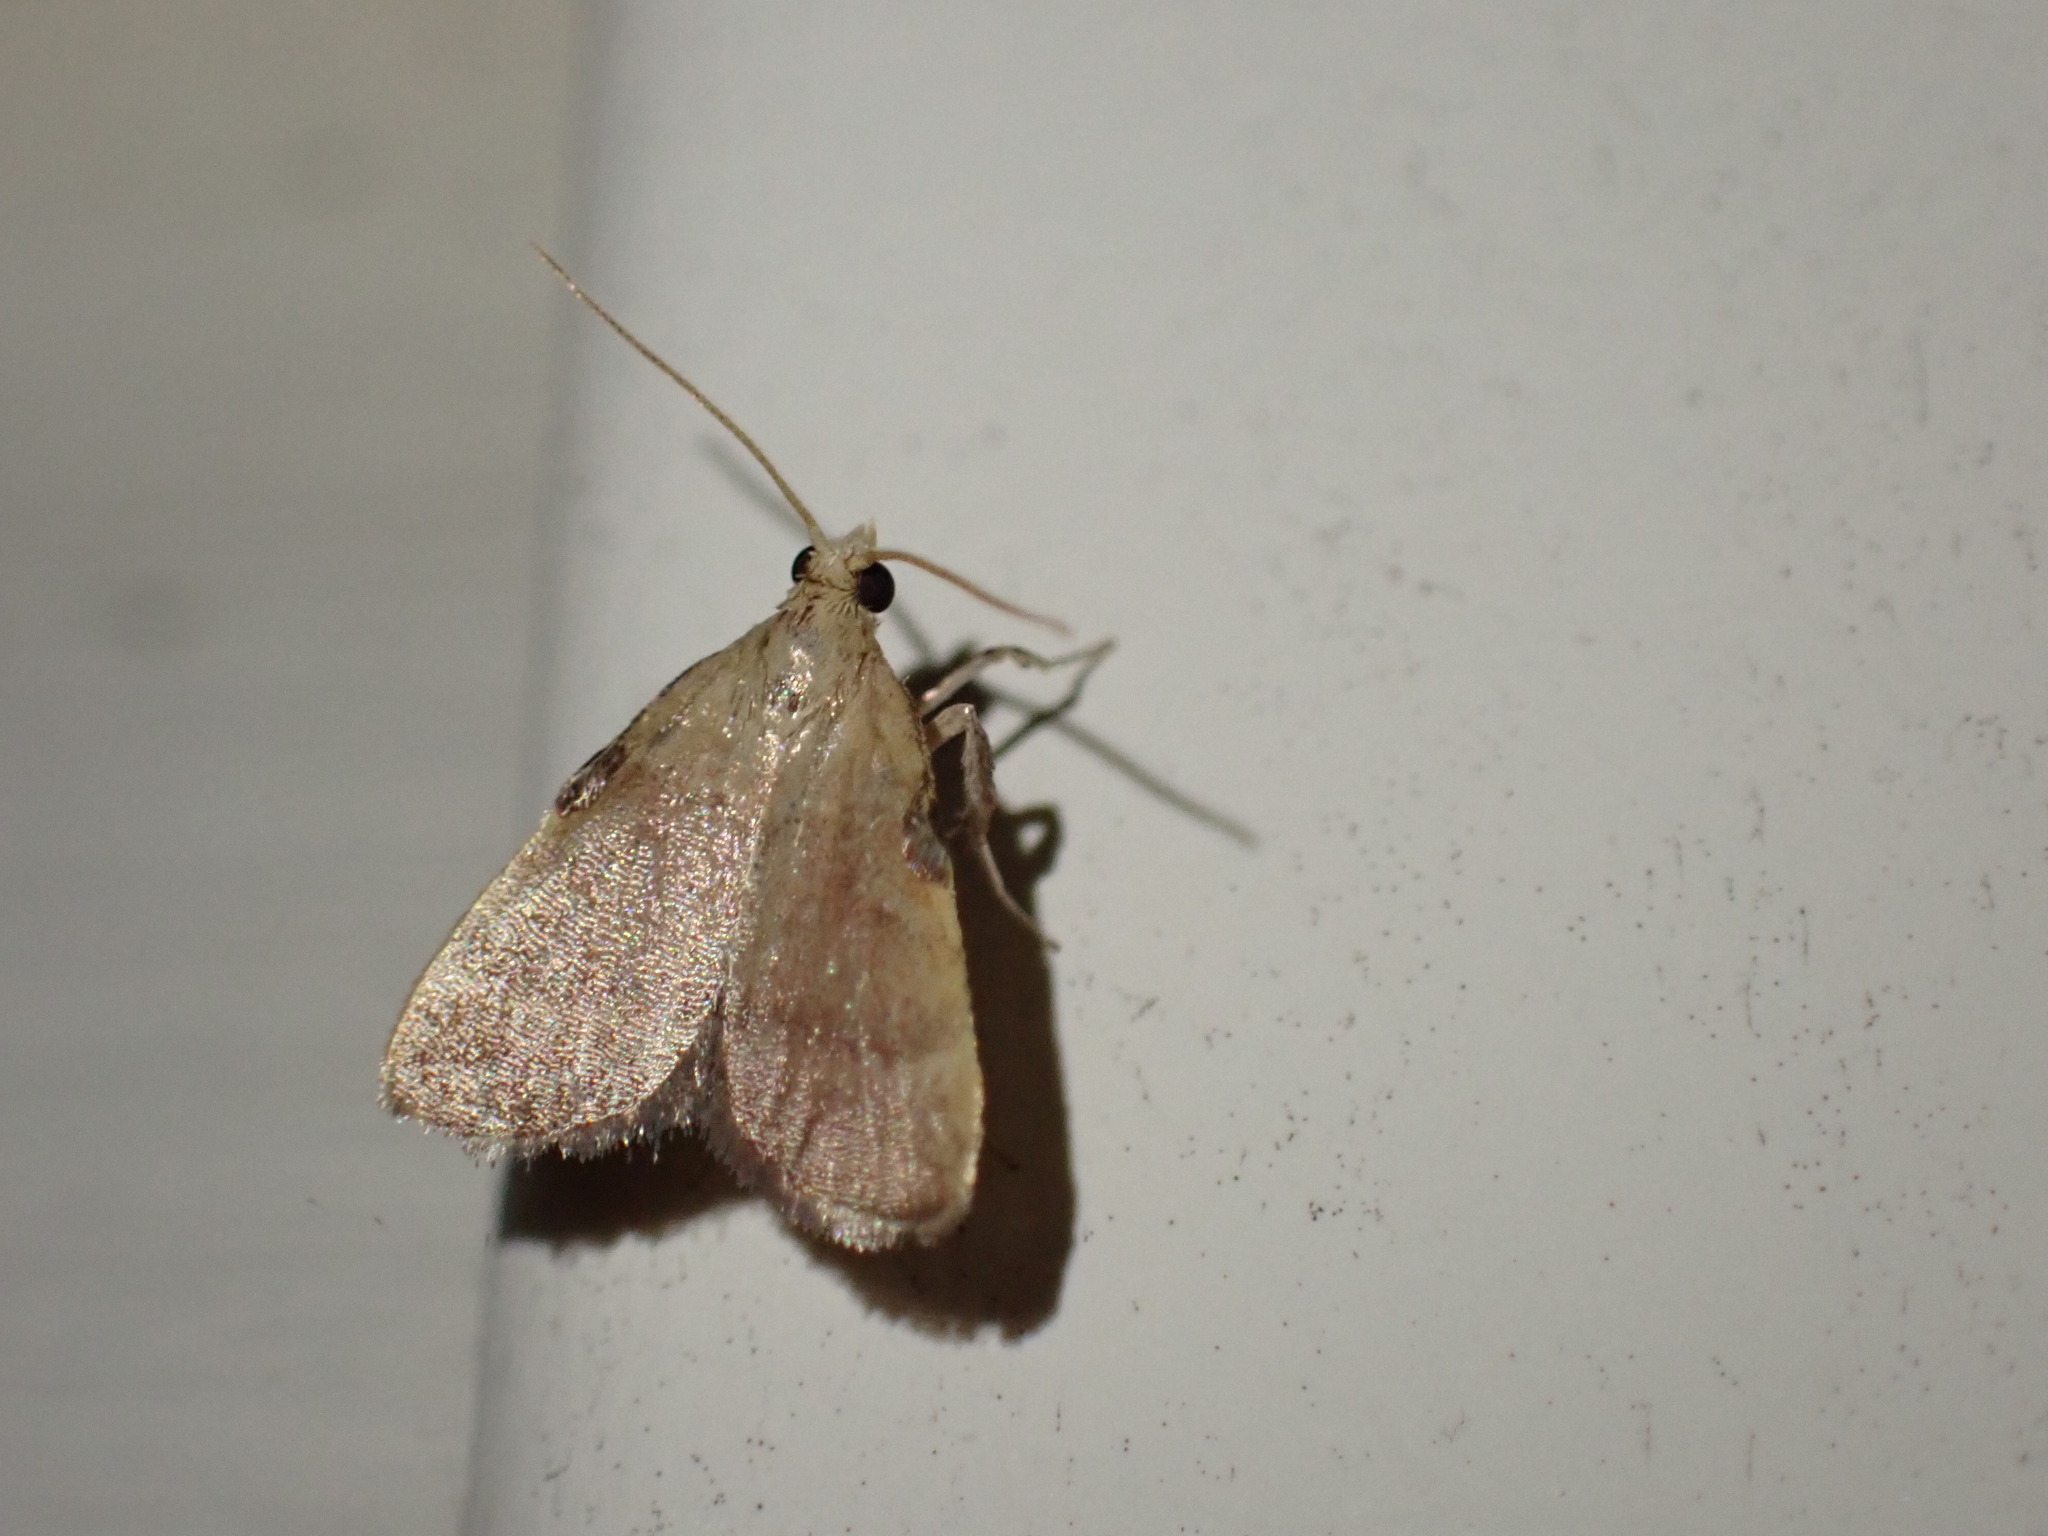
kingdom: Animalia
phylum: Arthropoda
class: Insecta
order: Lepidoptera
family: Pyralidae
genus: Condylolomia
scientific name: Condylolomia participialis
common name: Drab condylolomia moth
